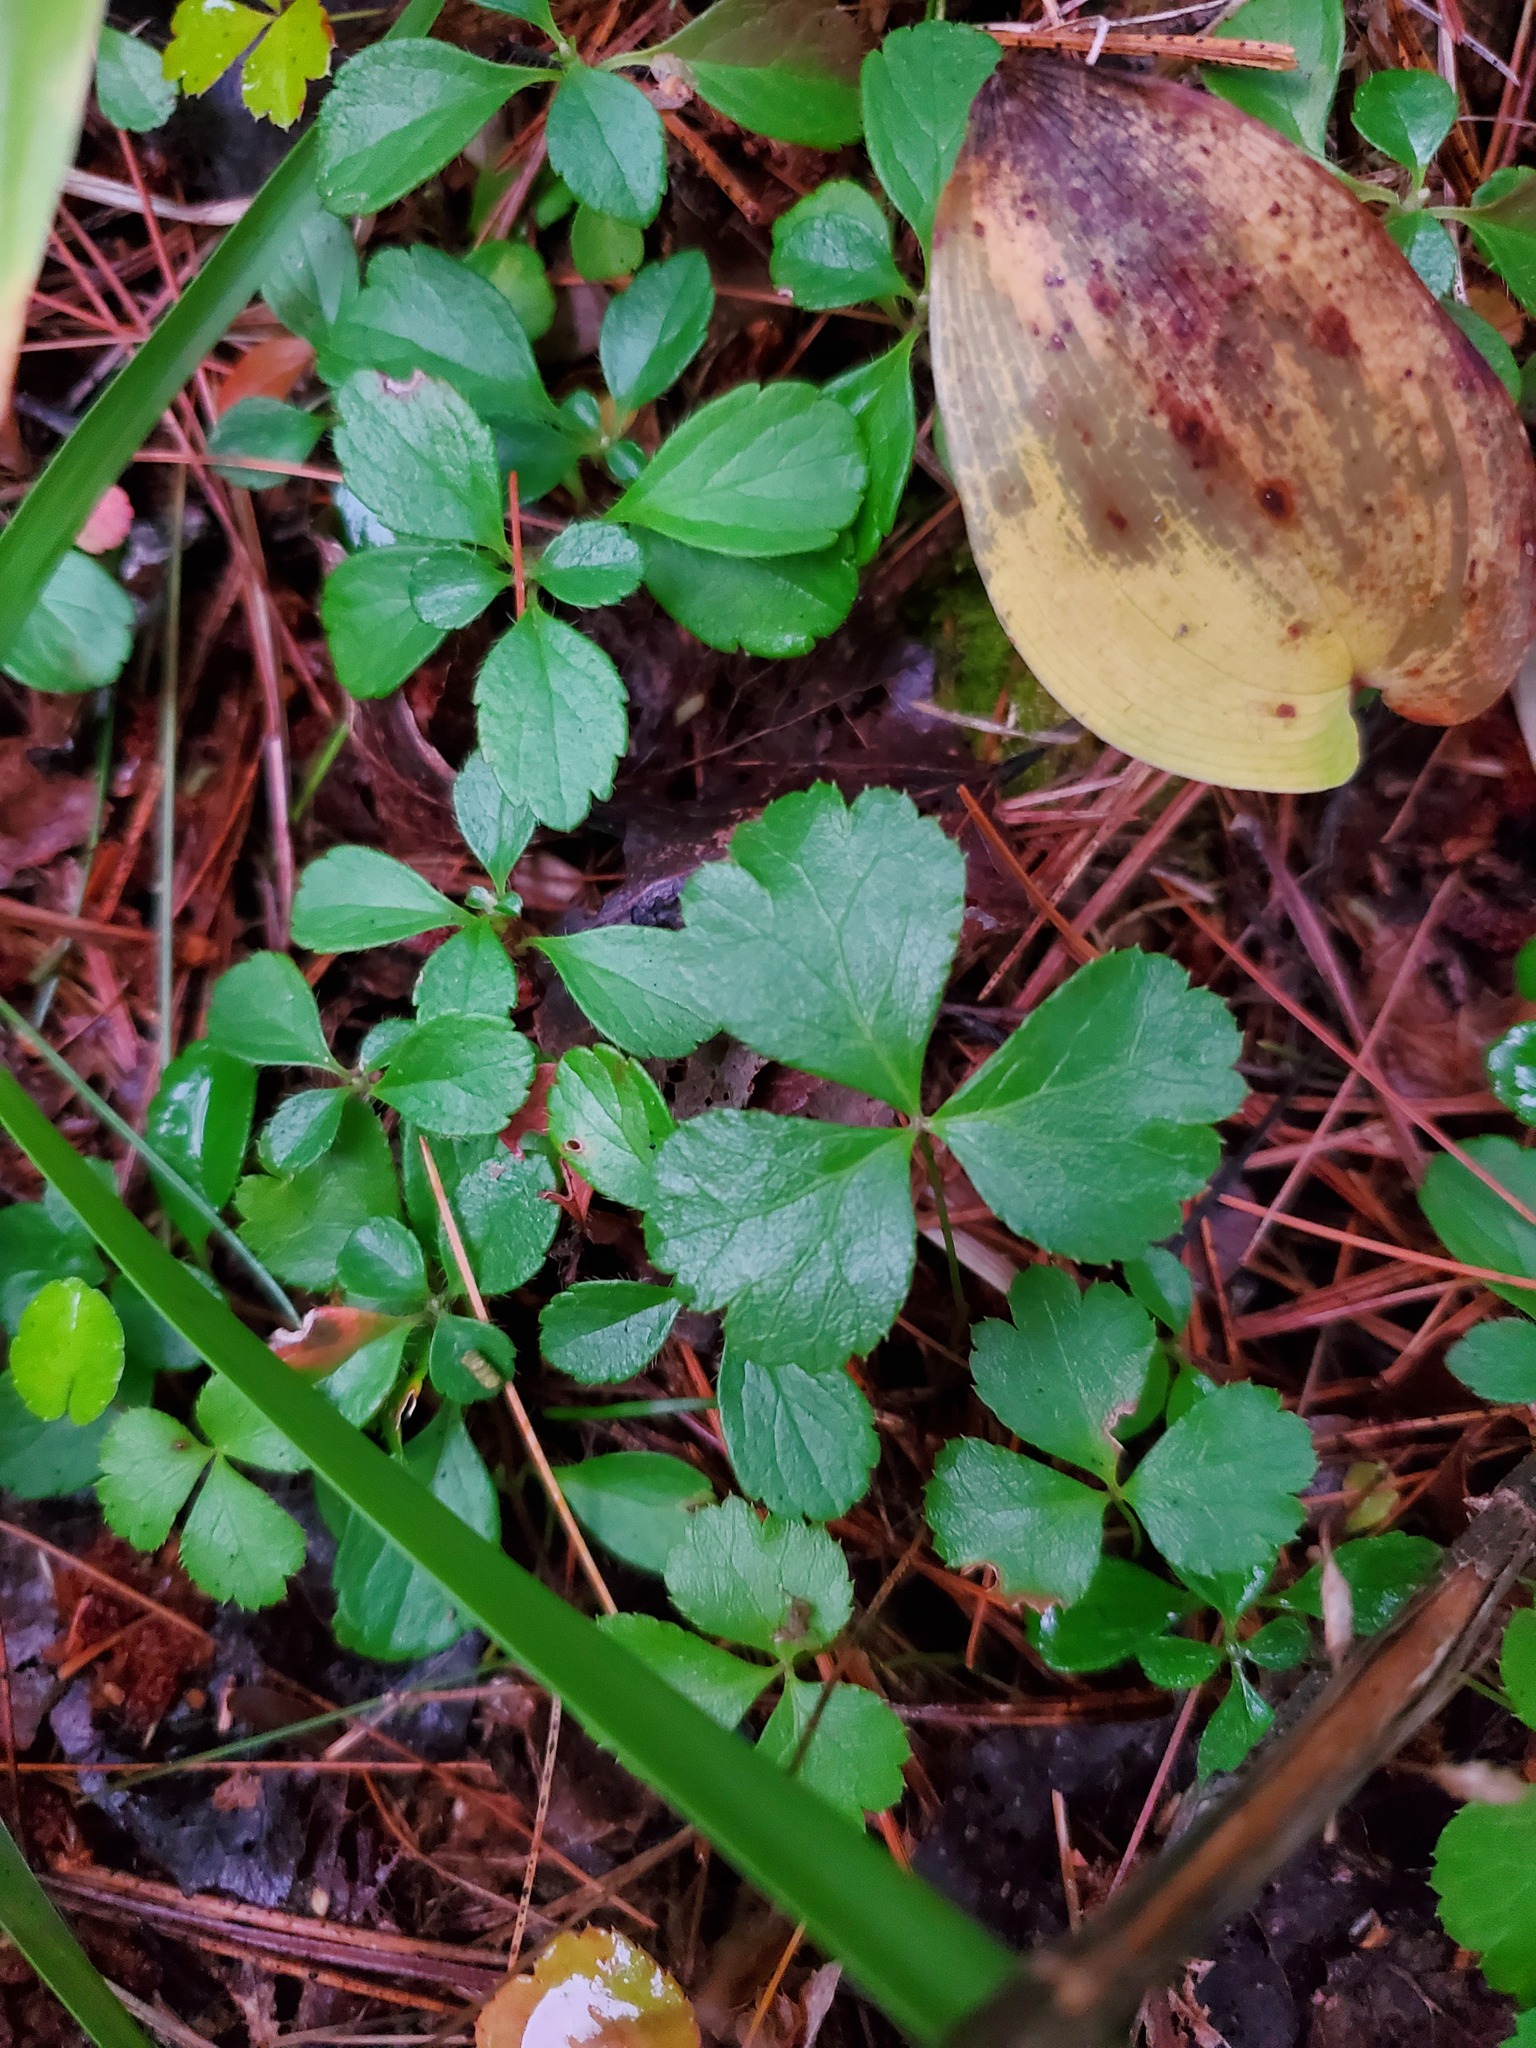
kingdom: Plantae
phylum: Tracheophyta
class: Magnoliopsida
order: Ranunculales
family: Ranunculaceae
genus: Coptis
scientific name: Coptis trifolia
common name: Canker-root
